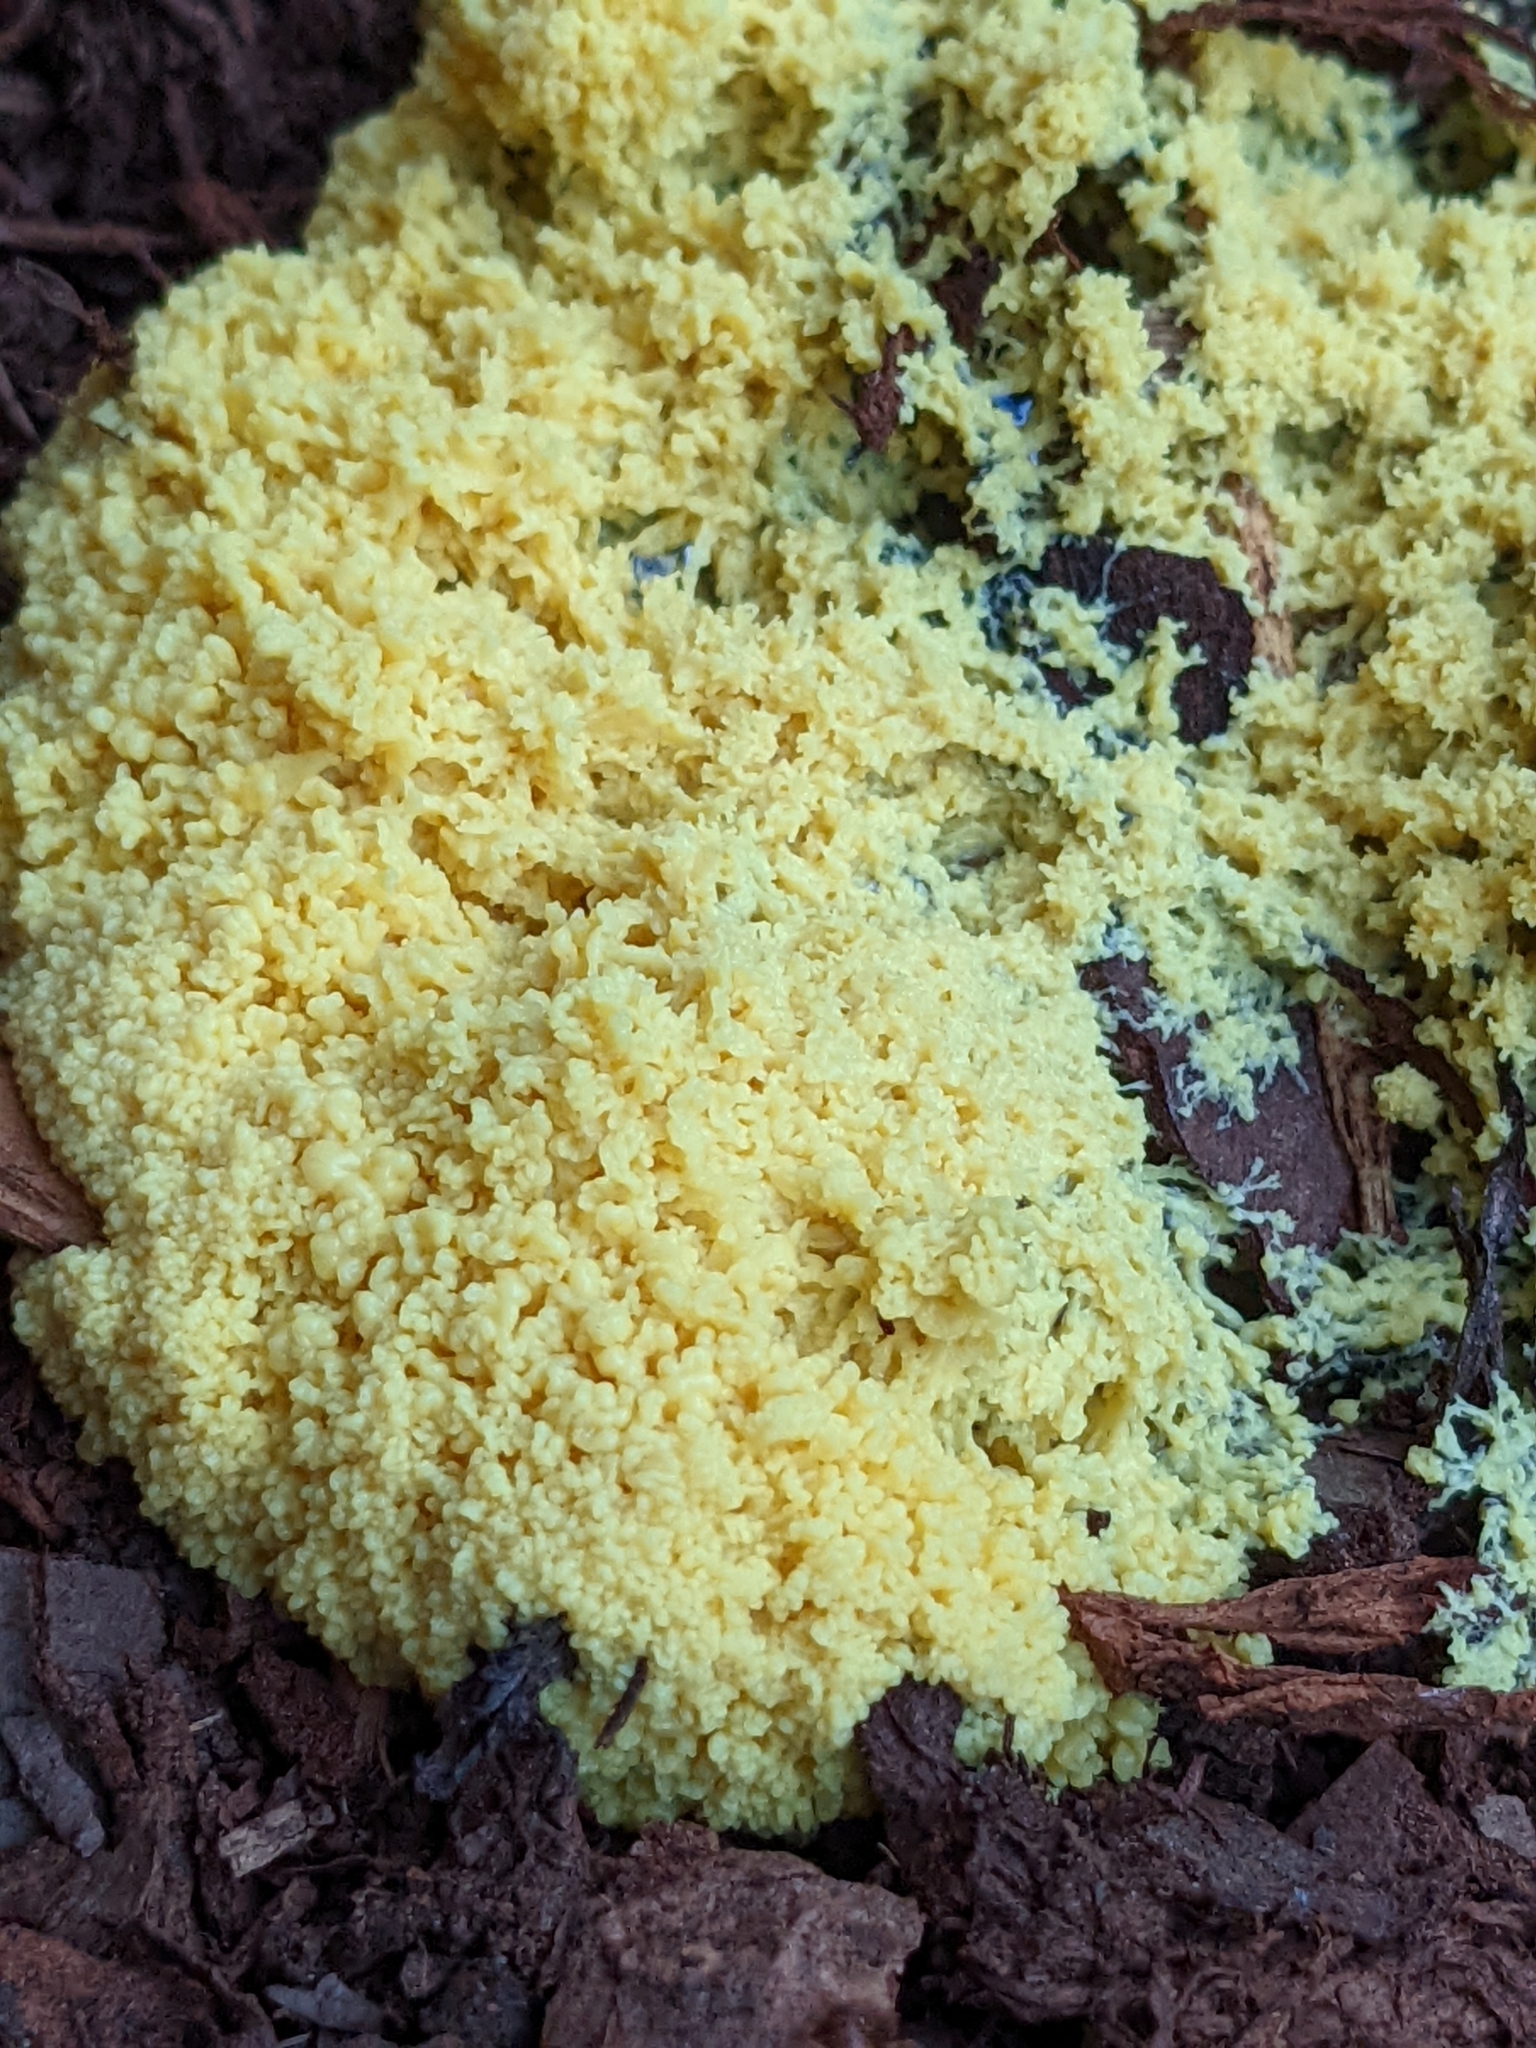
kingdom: Protozoa
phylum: Mycetozoa
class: Myxomycetes
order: Physarales
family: Physaraceae
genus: Fuligo
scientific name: Fuligo septica
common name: Dog vomit slime mold
